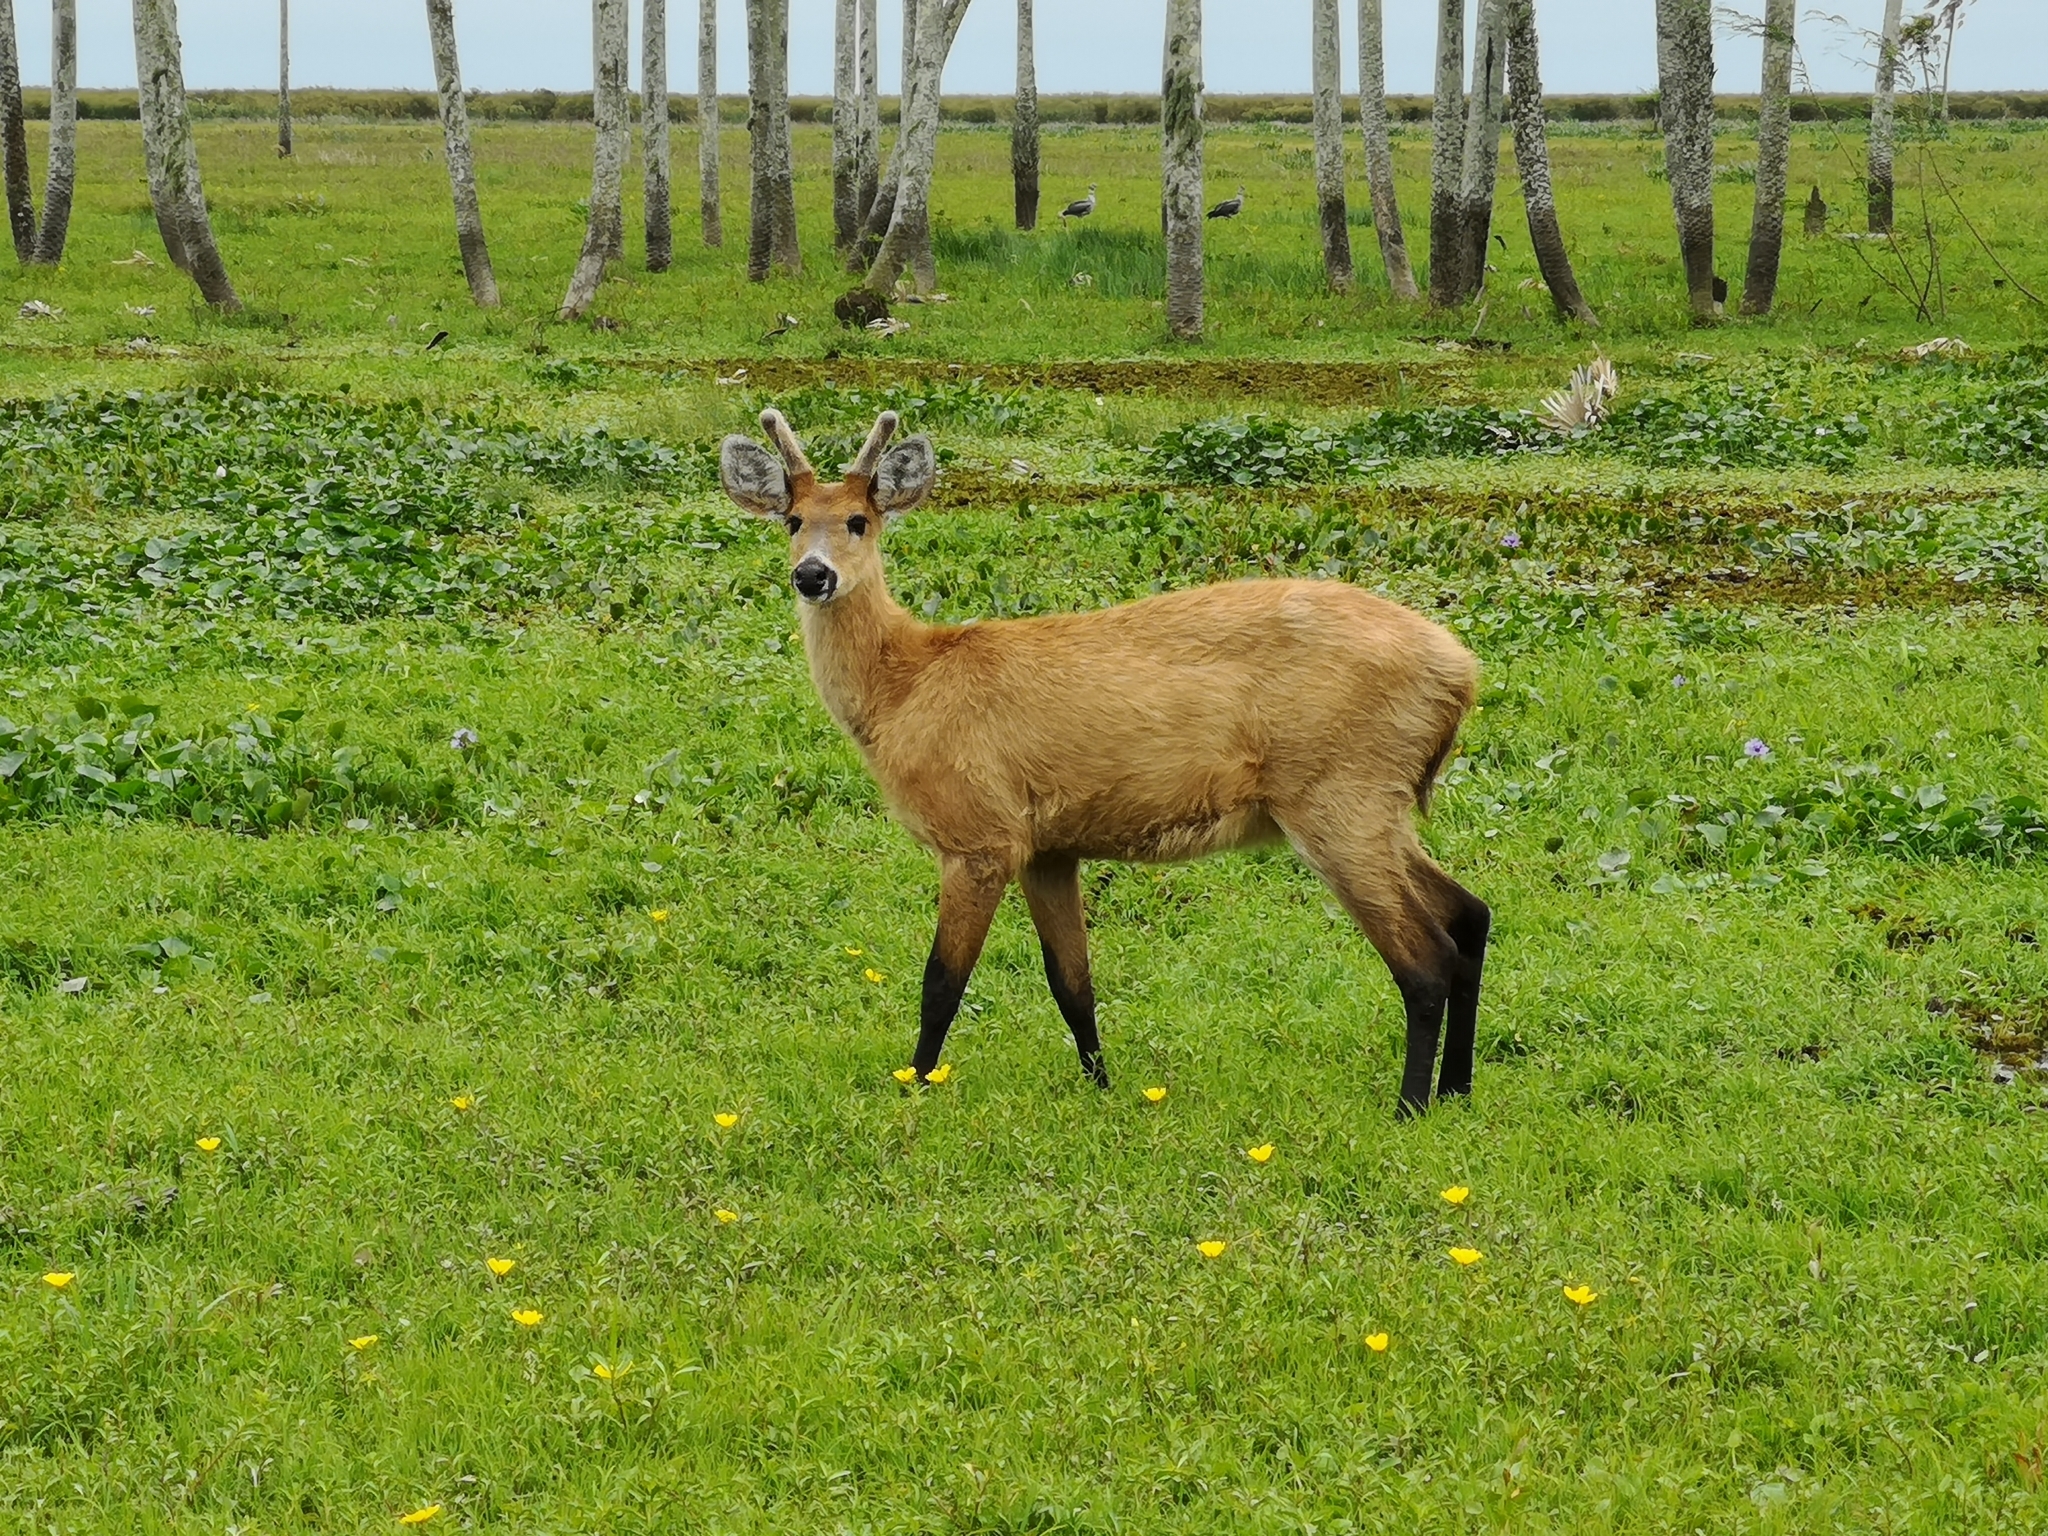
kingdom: Animalia
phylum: Chordata
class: Mammalia
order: Artiodactyla
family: Cervidae
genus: Blastocerus
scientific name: Blastocerus dichotomus
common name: Marsh deer
